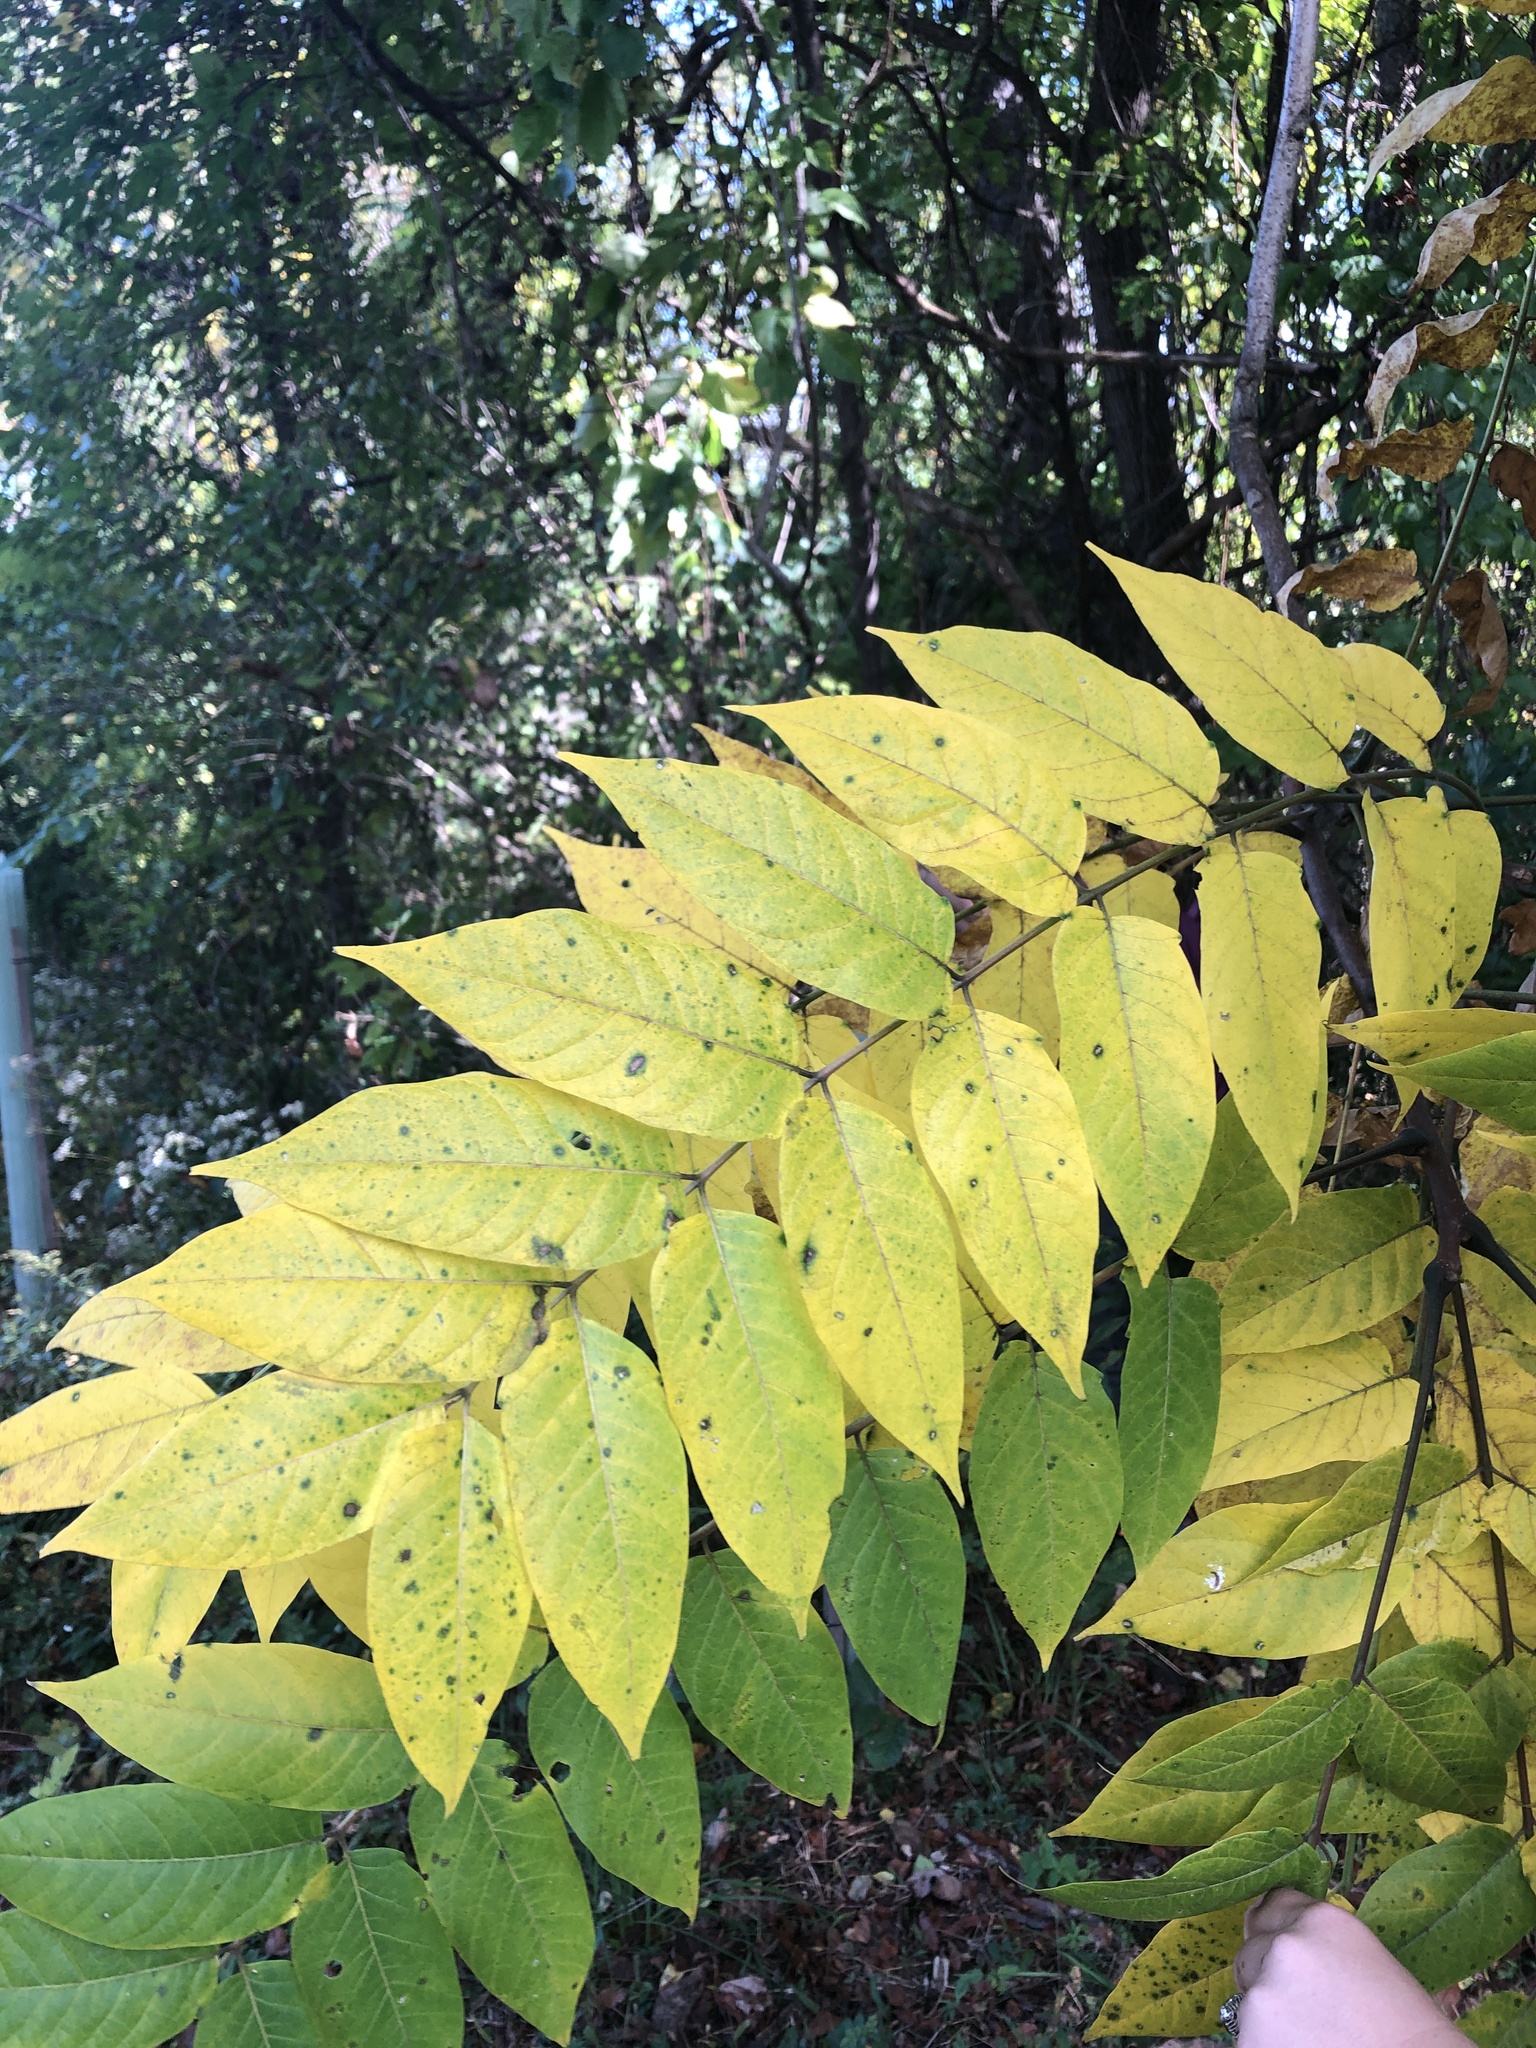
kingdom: Plantae
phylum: Tracheophyta
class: Magnoliopsida
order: Sapindales
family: Simaroubaceae
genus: Ailanthus
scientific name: Ailanthus altissima
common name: Tree-of-heaven
